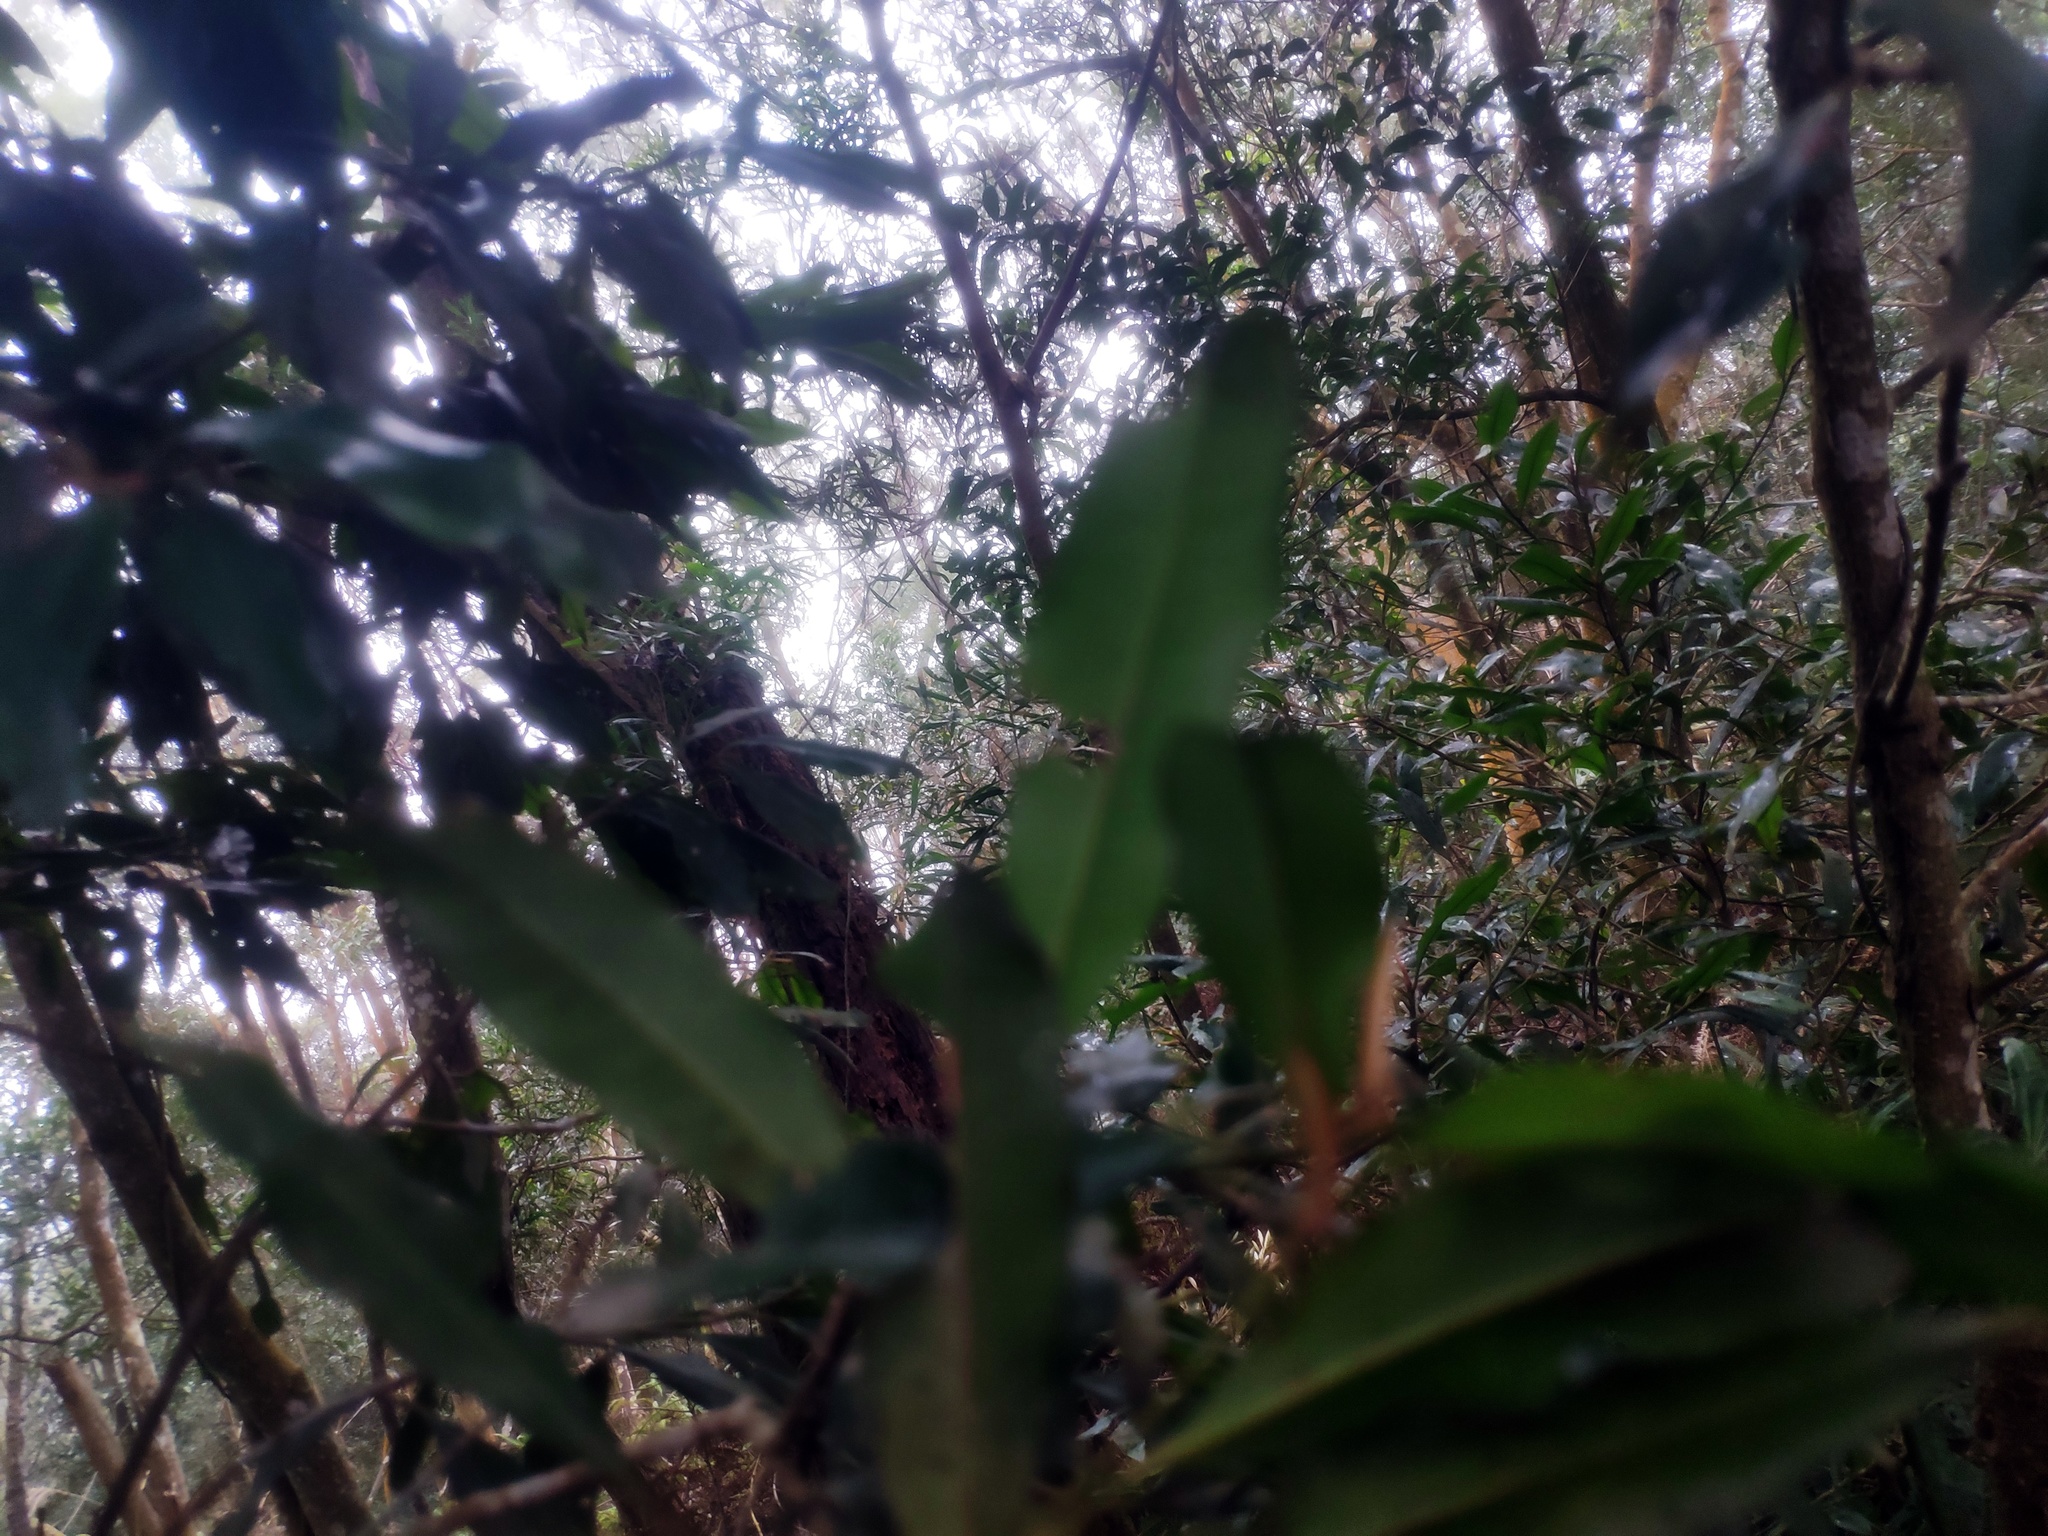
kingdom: Plantae
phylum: Tracheophyta
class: Magnoliopsida
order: Ericales
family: Primulaceae
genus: Ardisia
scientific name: Ardisia quinquegona
